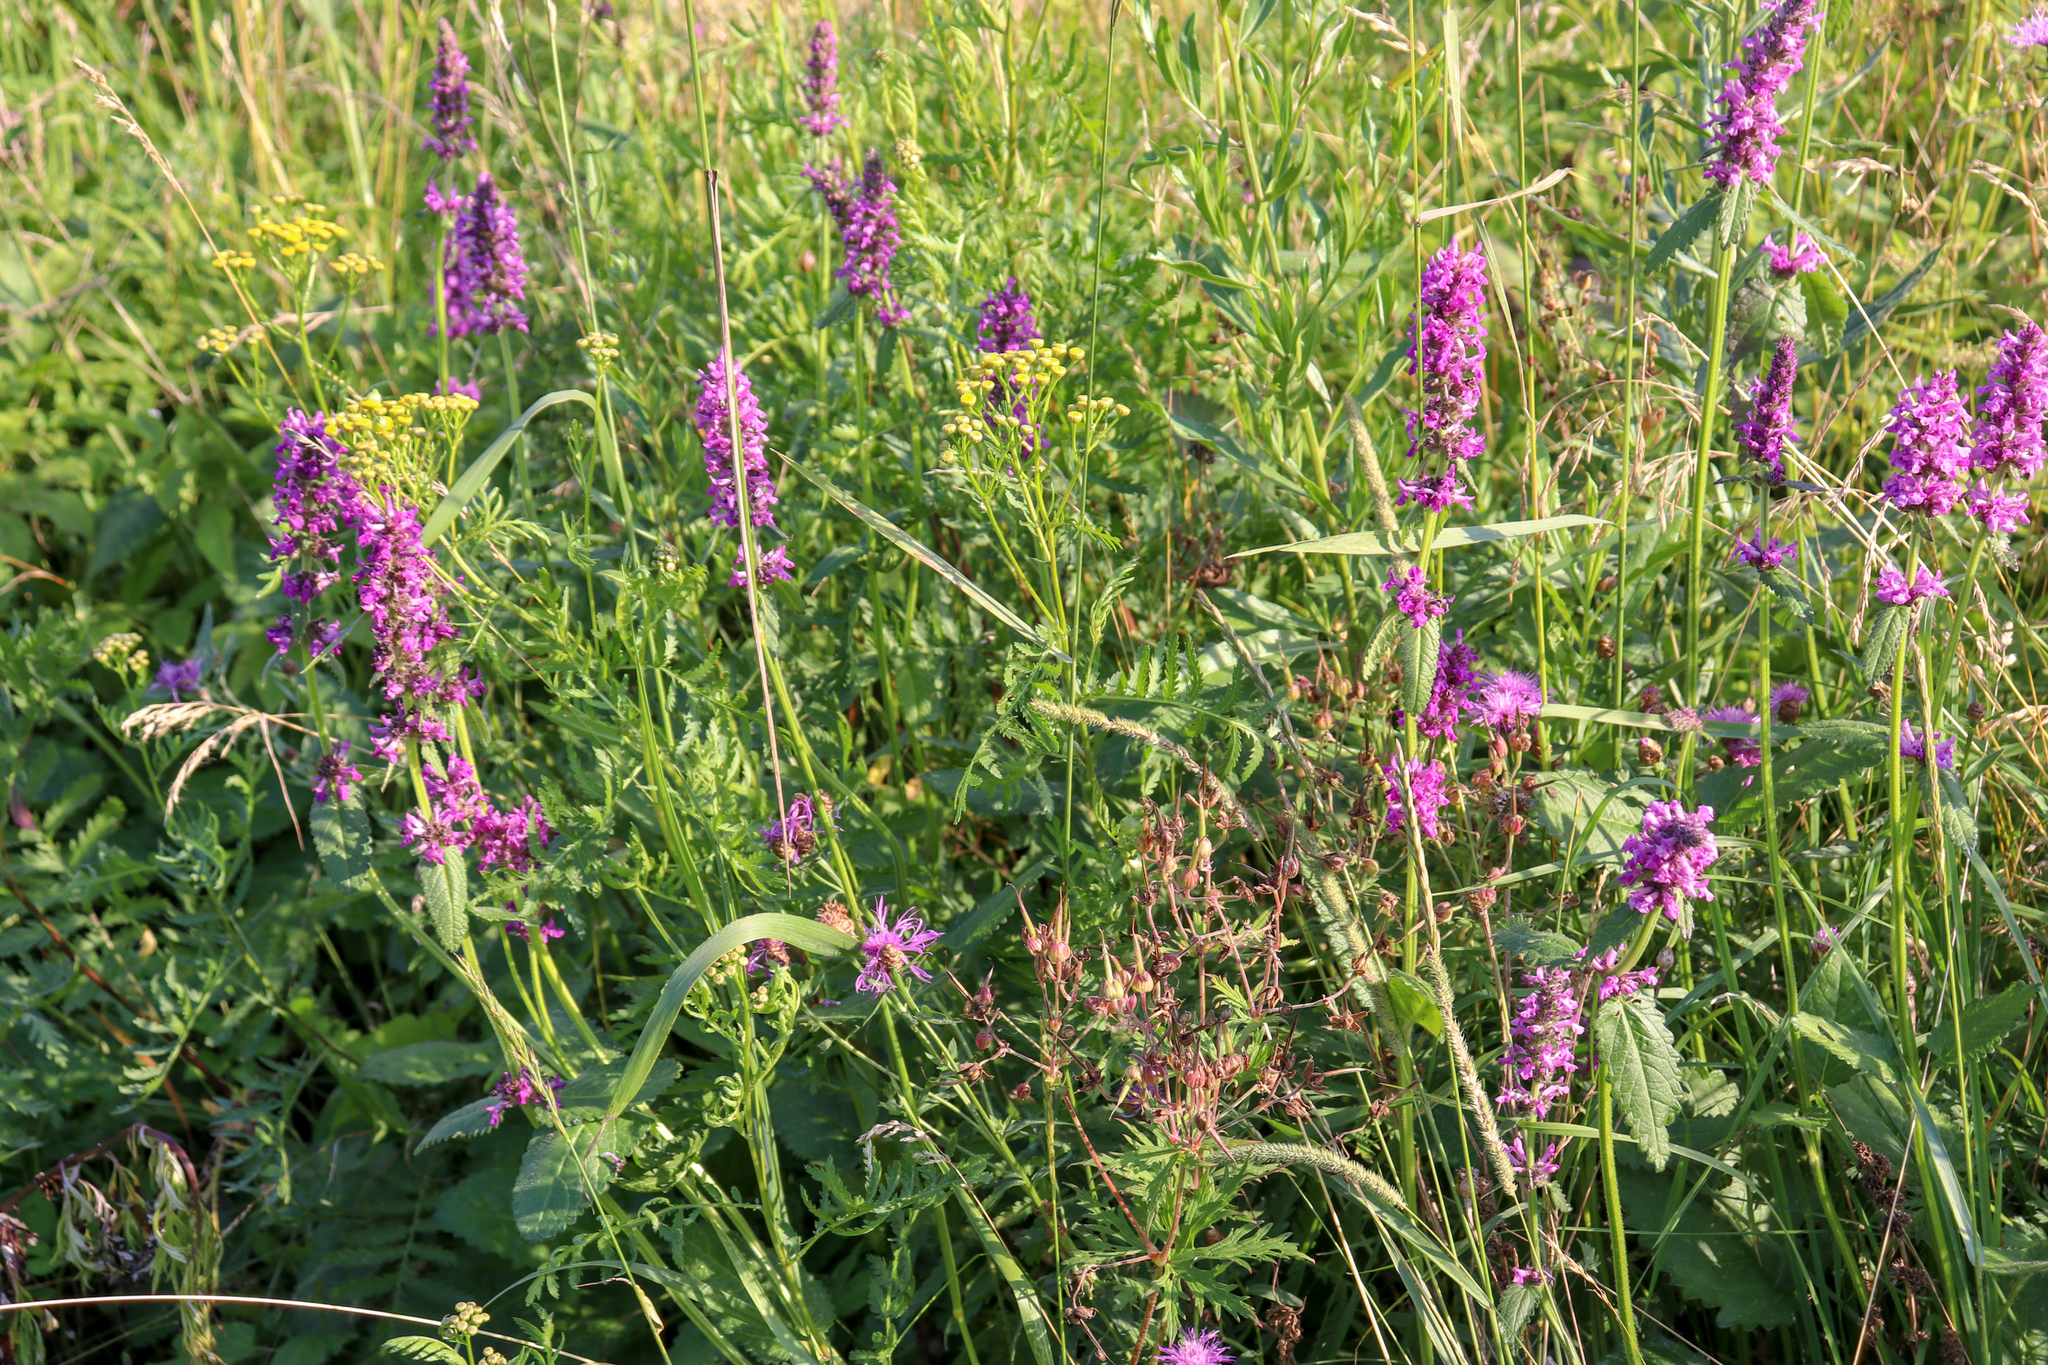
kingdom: Plantae
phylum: Tracheophyta
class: Magnoliopsida
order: Lamiales
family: Lamiaceae
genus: Betonica
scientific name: Betonica officinalis
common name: Bishop's-wort
